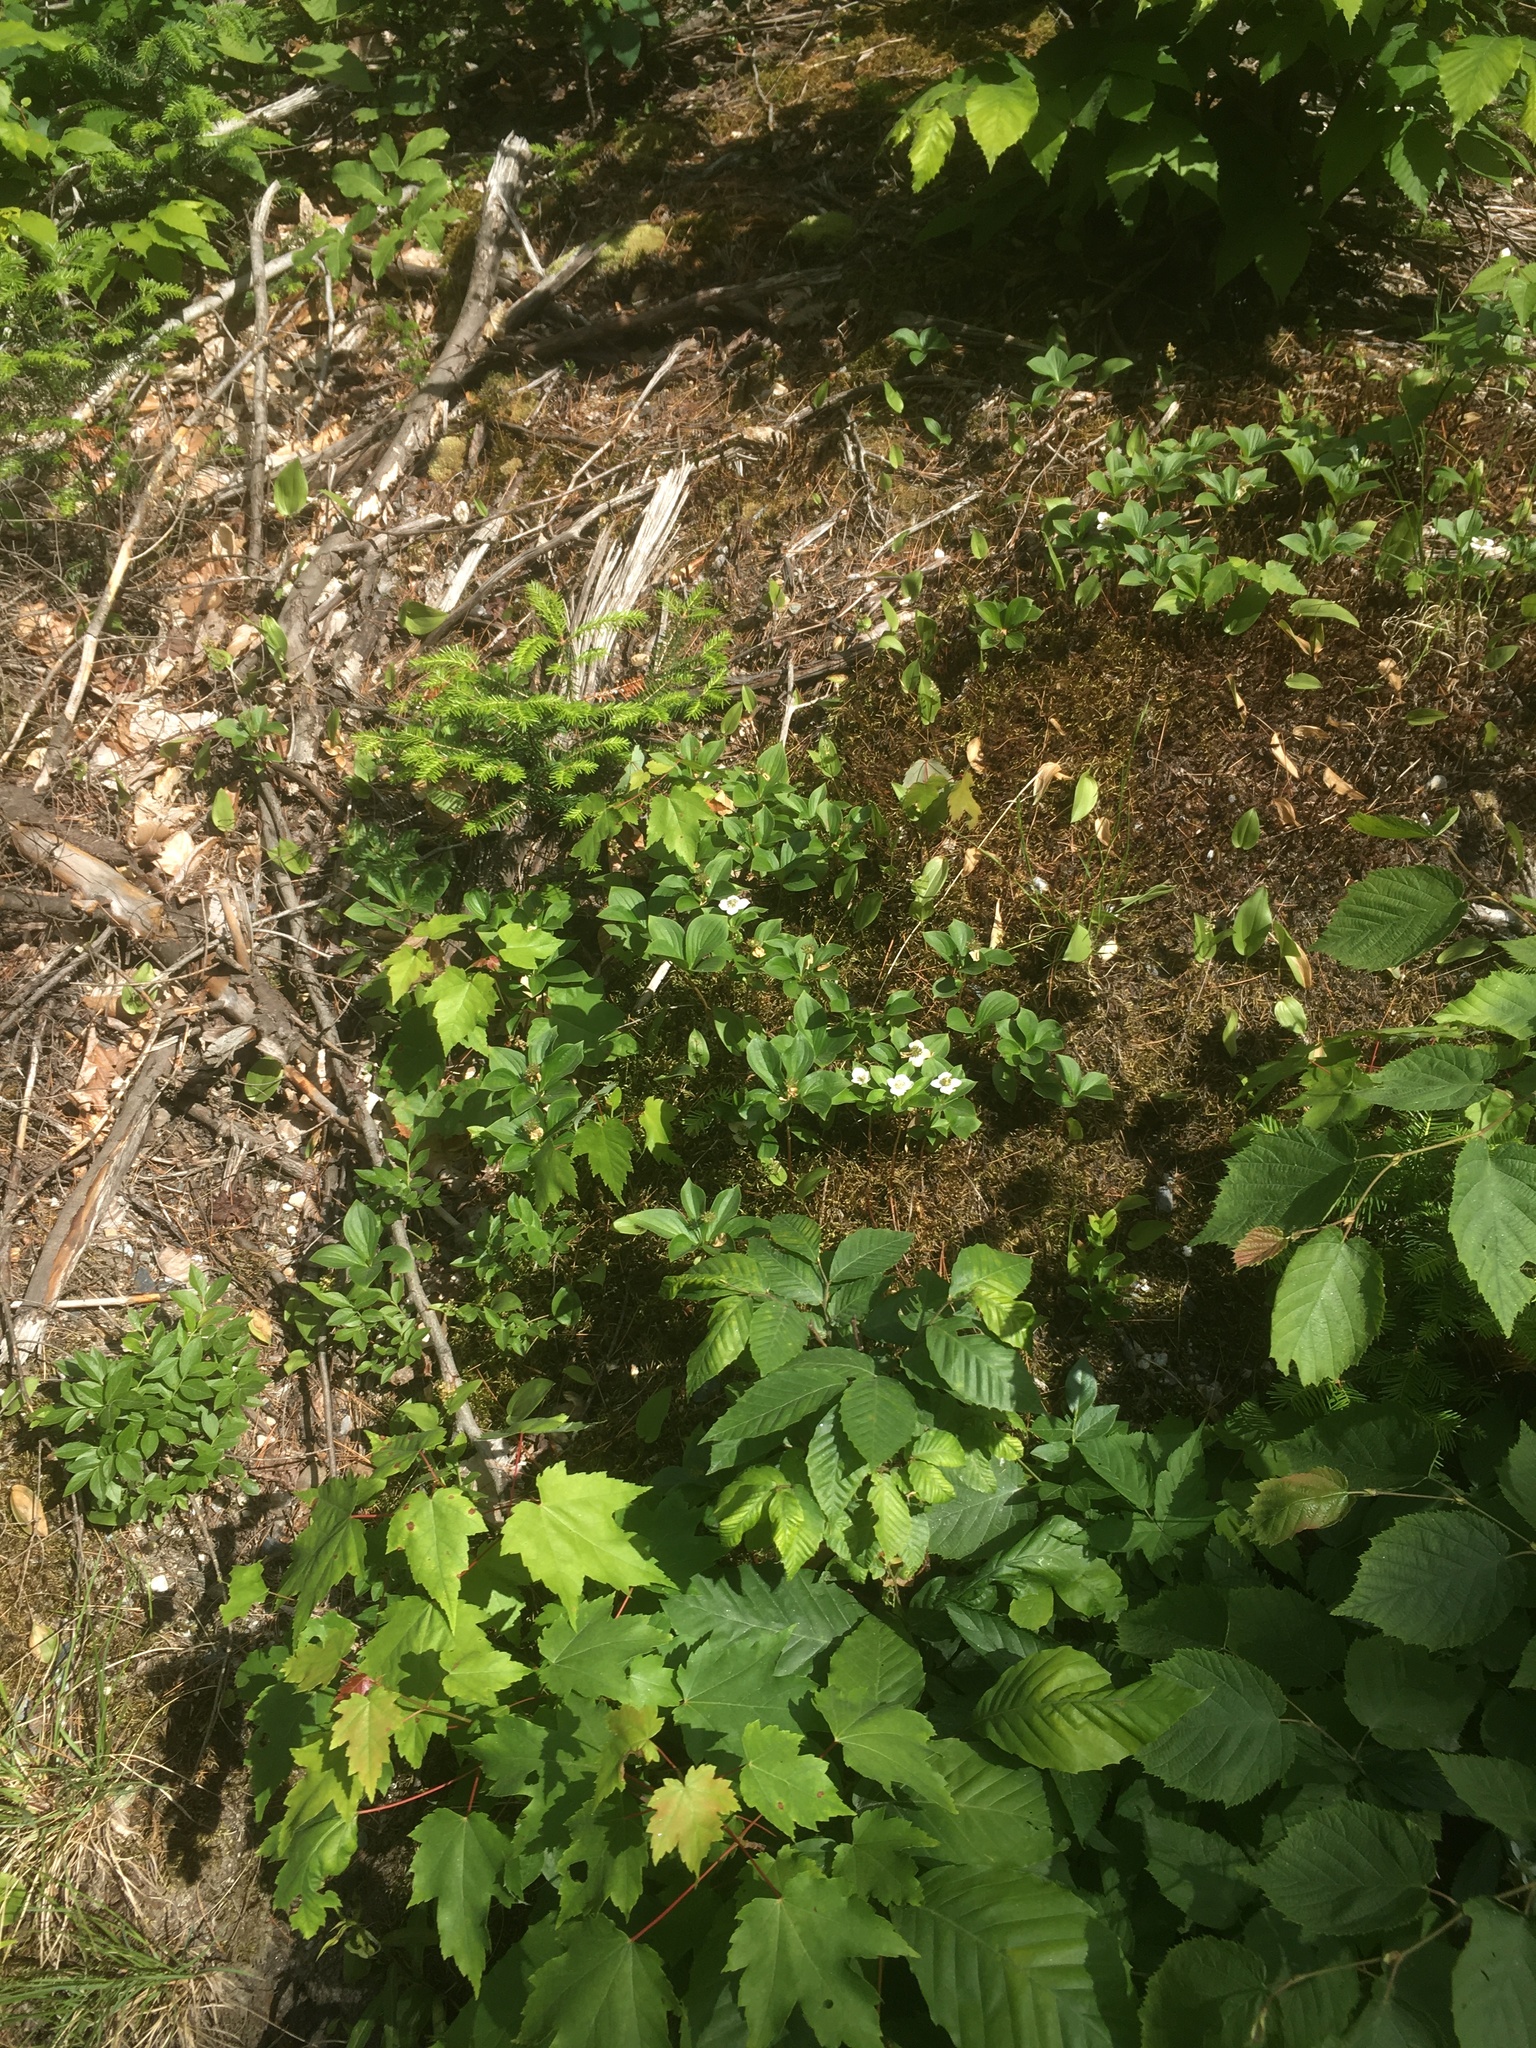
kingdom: Plantae
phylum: Tracheophyta
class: Magnoliopsida
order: Cornales
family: Cornaceae
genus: Cornus
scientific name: Cornus canadensis
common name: Creeping dogwood
